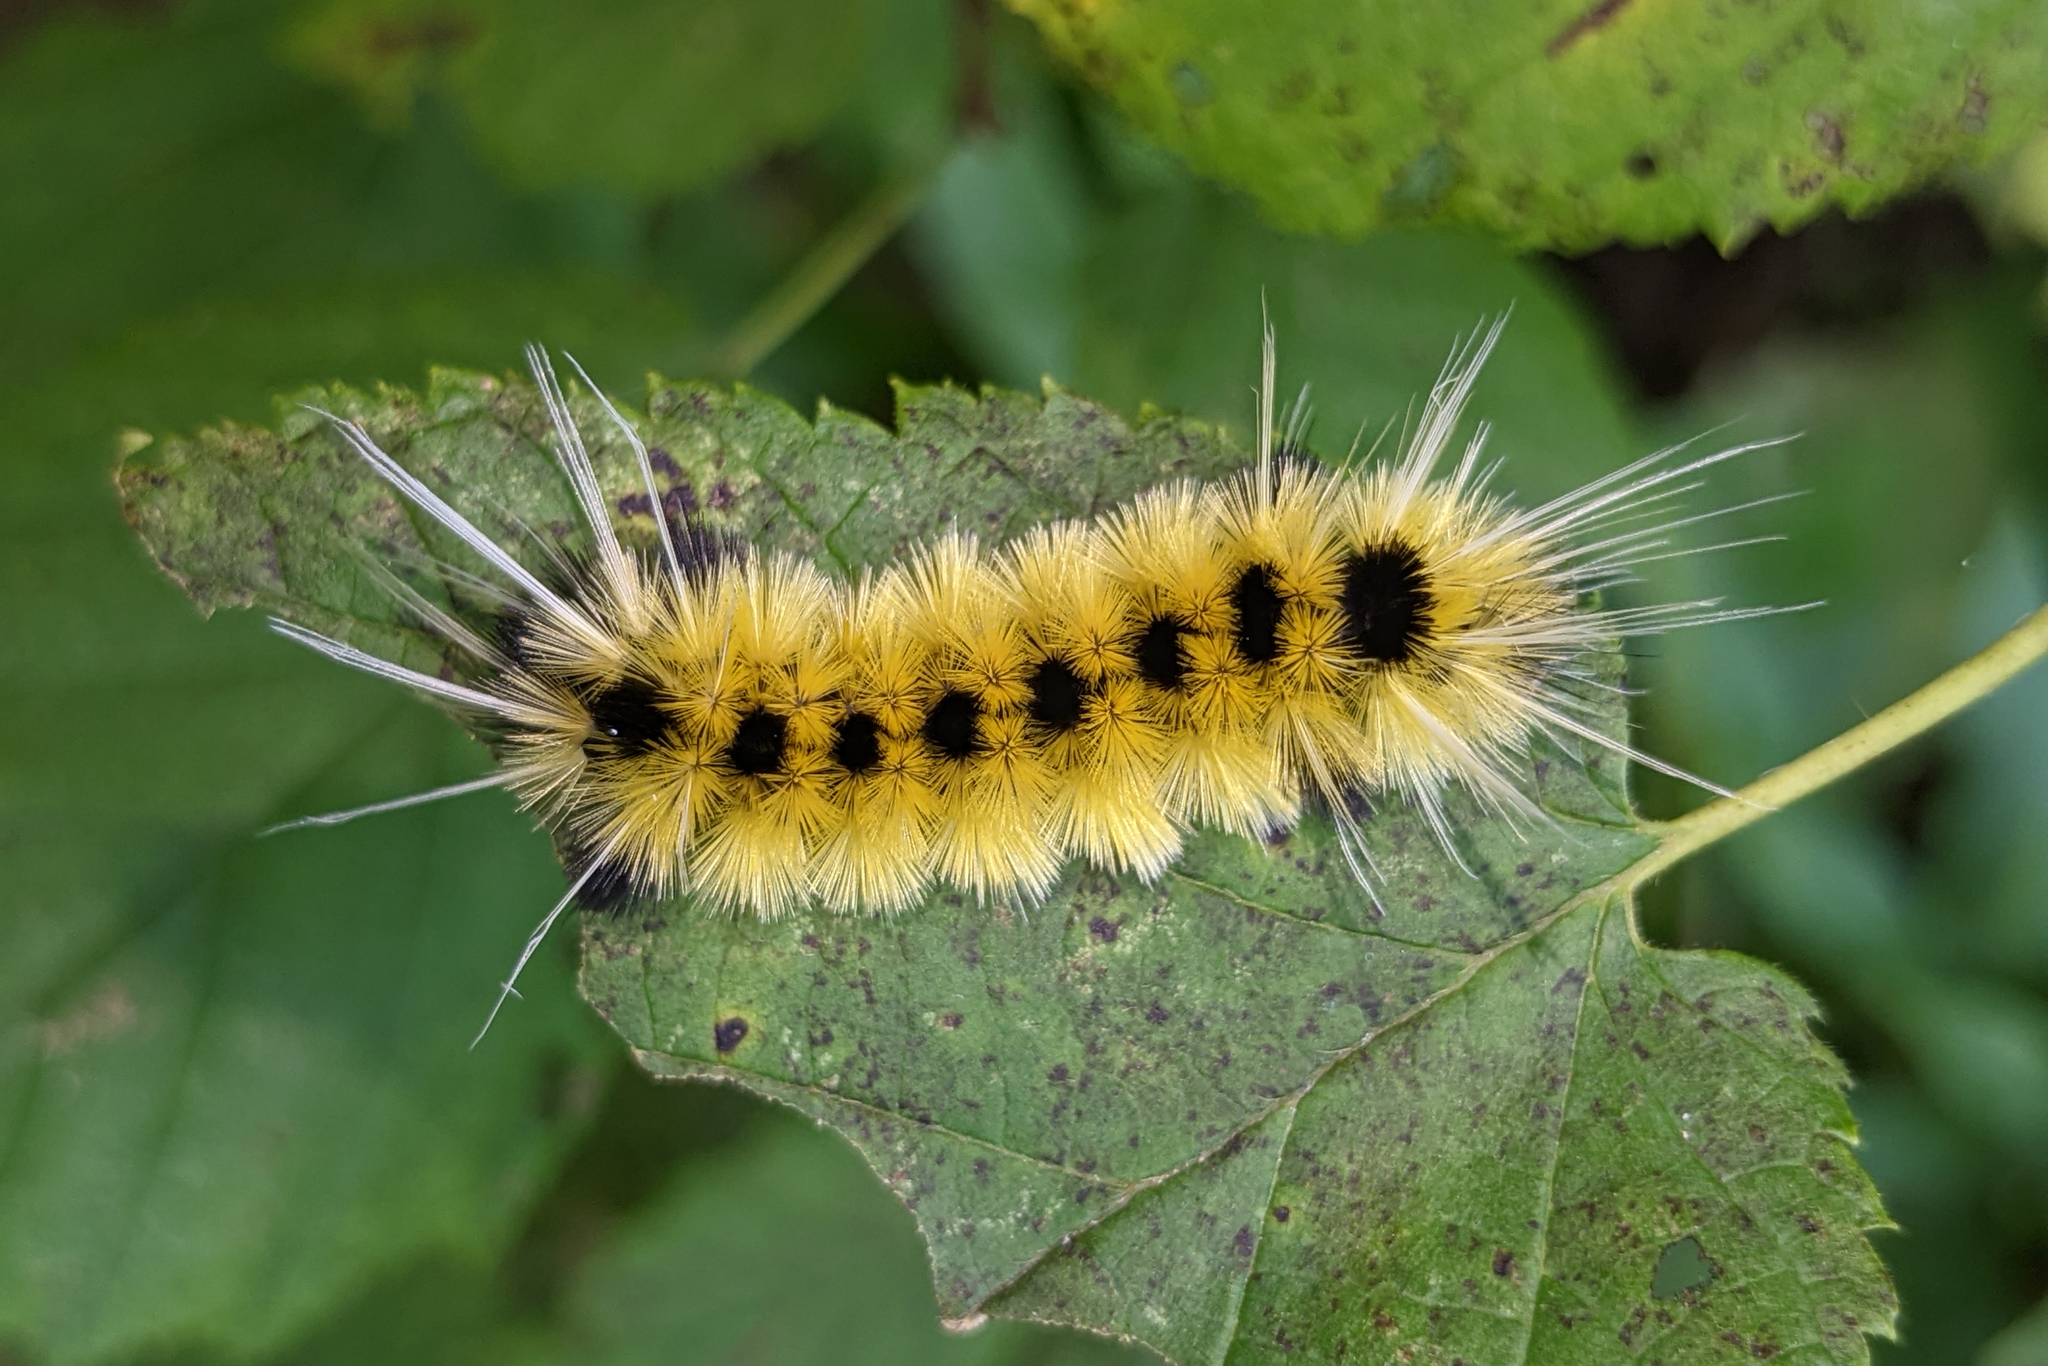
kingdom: Animalia
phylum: Arthropoda
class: Insecta
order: Lepidoptera
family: Erebidae
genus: Lophocampa
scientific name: Lophocampa maculata
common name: Spotted tussock moth
